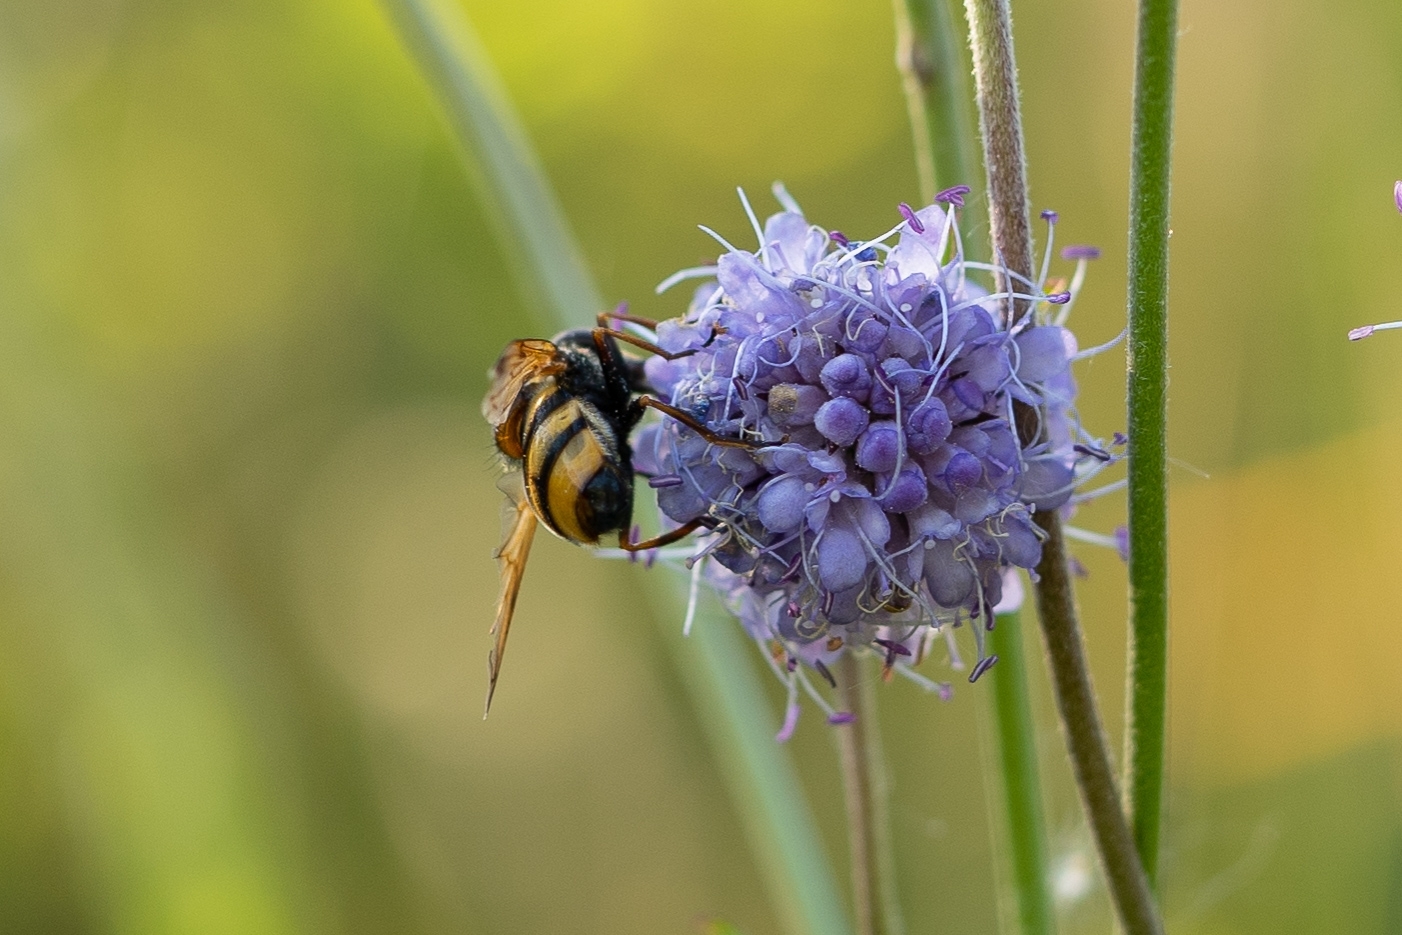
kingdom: Animalia
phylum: Arthropoda
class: Insecta
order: Diptera
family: Syrphidae
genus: Volucella
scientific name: Volucella inanis
